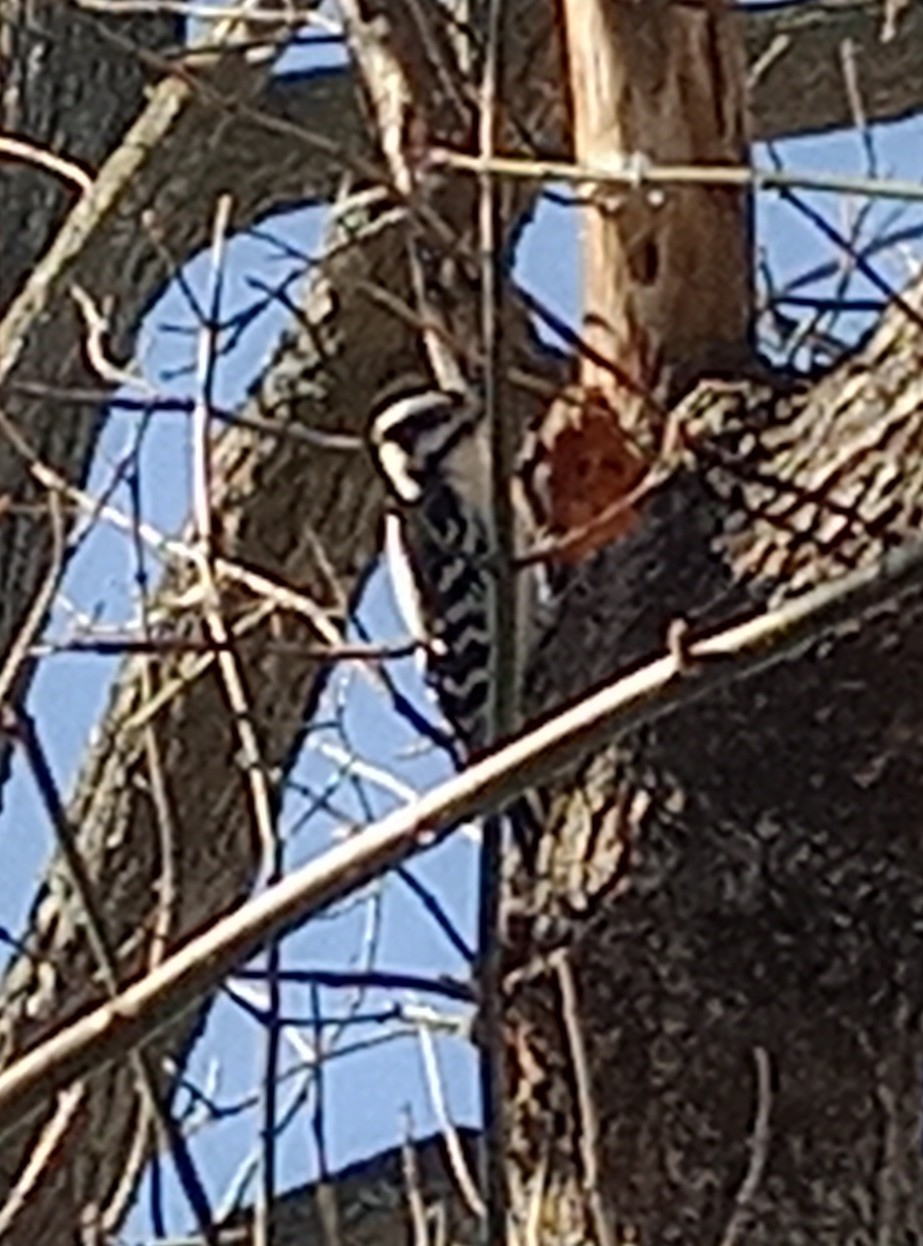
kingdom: Animalia
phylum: Chordata
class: Aves
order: Piciformes
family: Picidae
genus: Dryobates
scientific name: Dryobates pubescens
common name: Downy woodpecker
